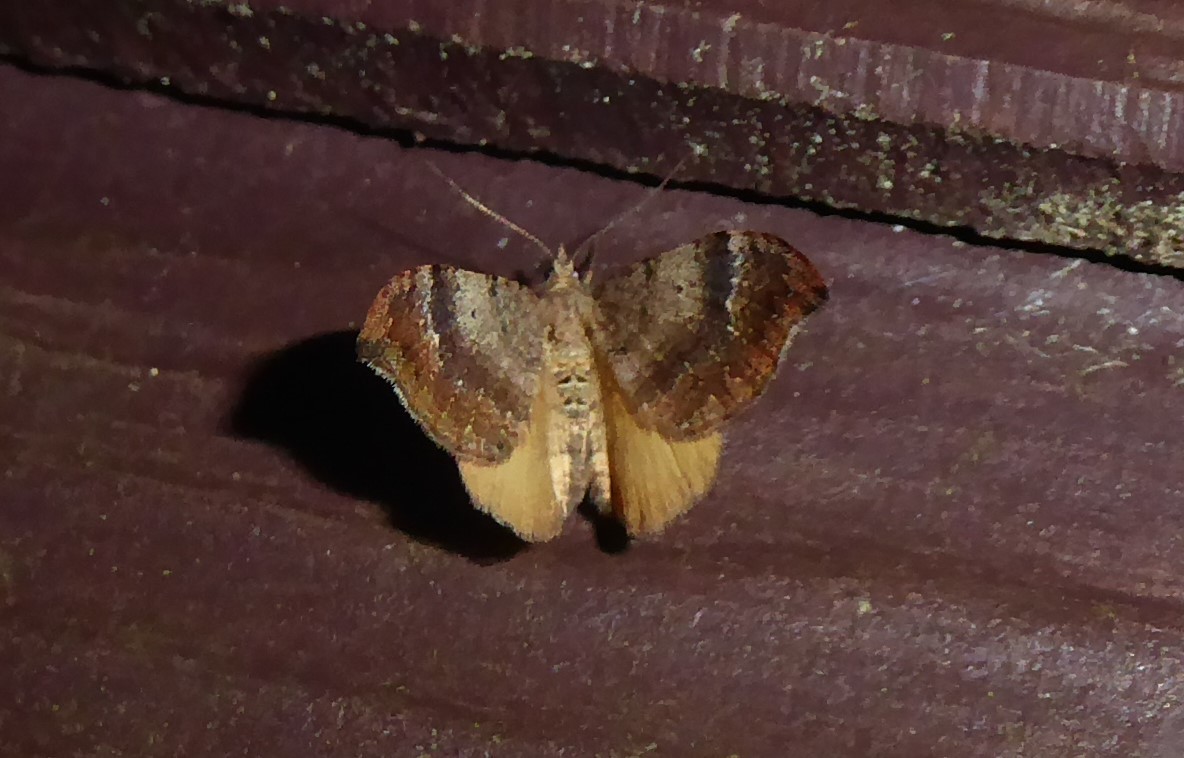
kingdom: Animalia
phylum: Arthropoda
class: Insecta
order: Lepidoptera
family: Geometridae
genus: Homodotis
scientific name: Homodotis megaspilata
